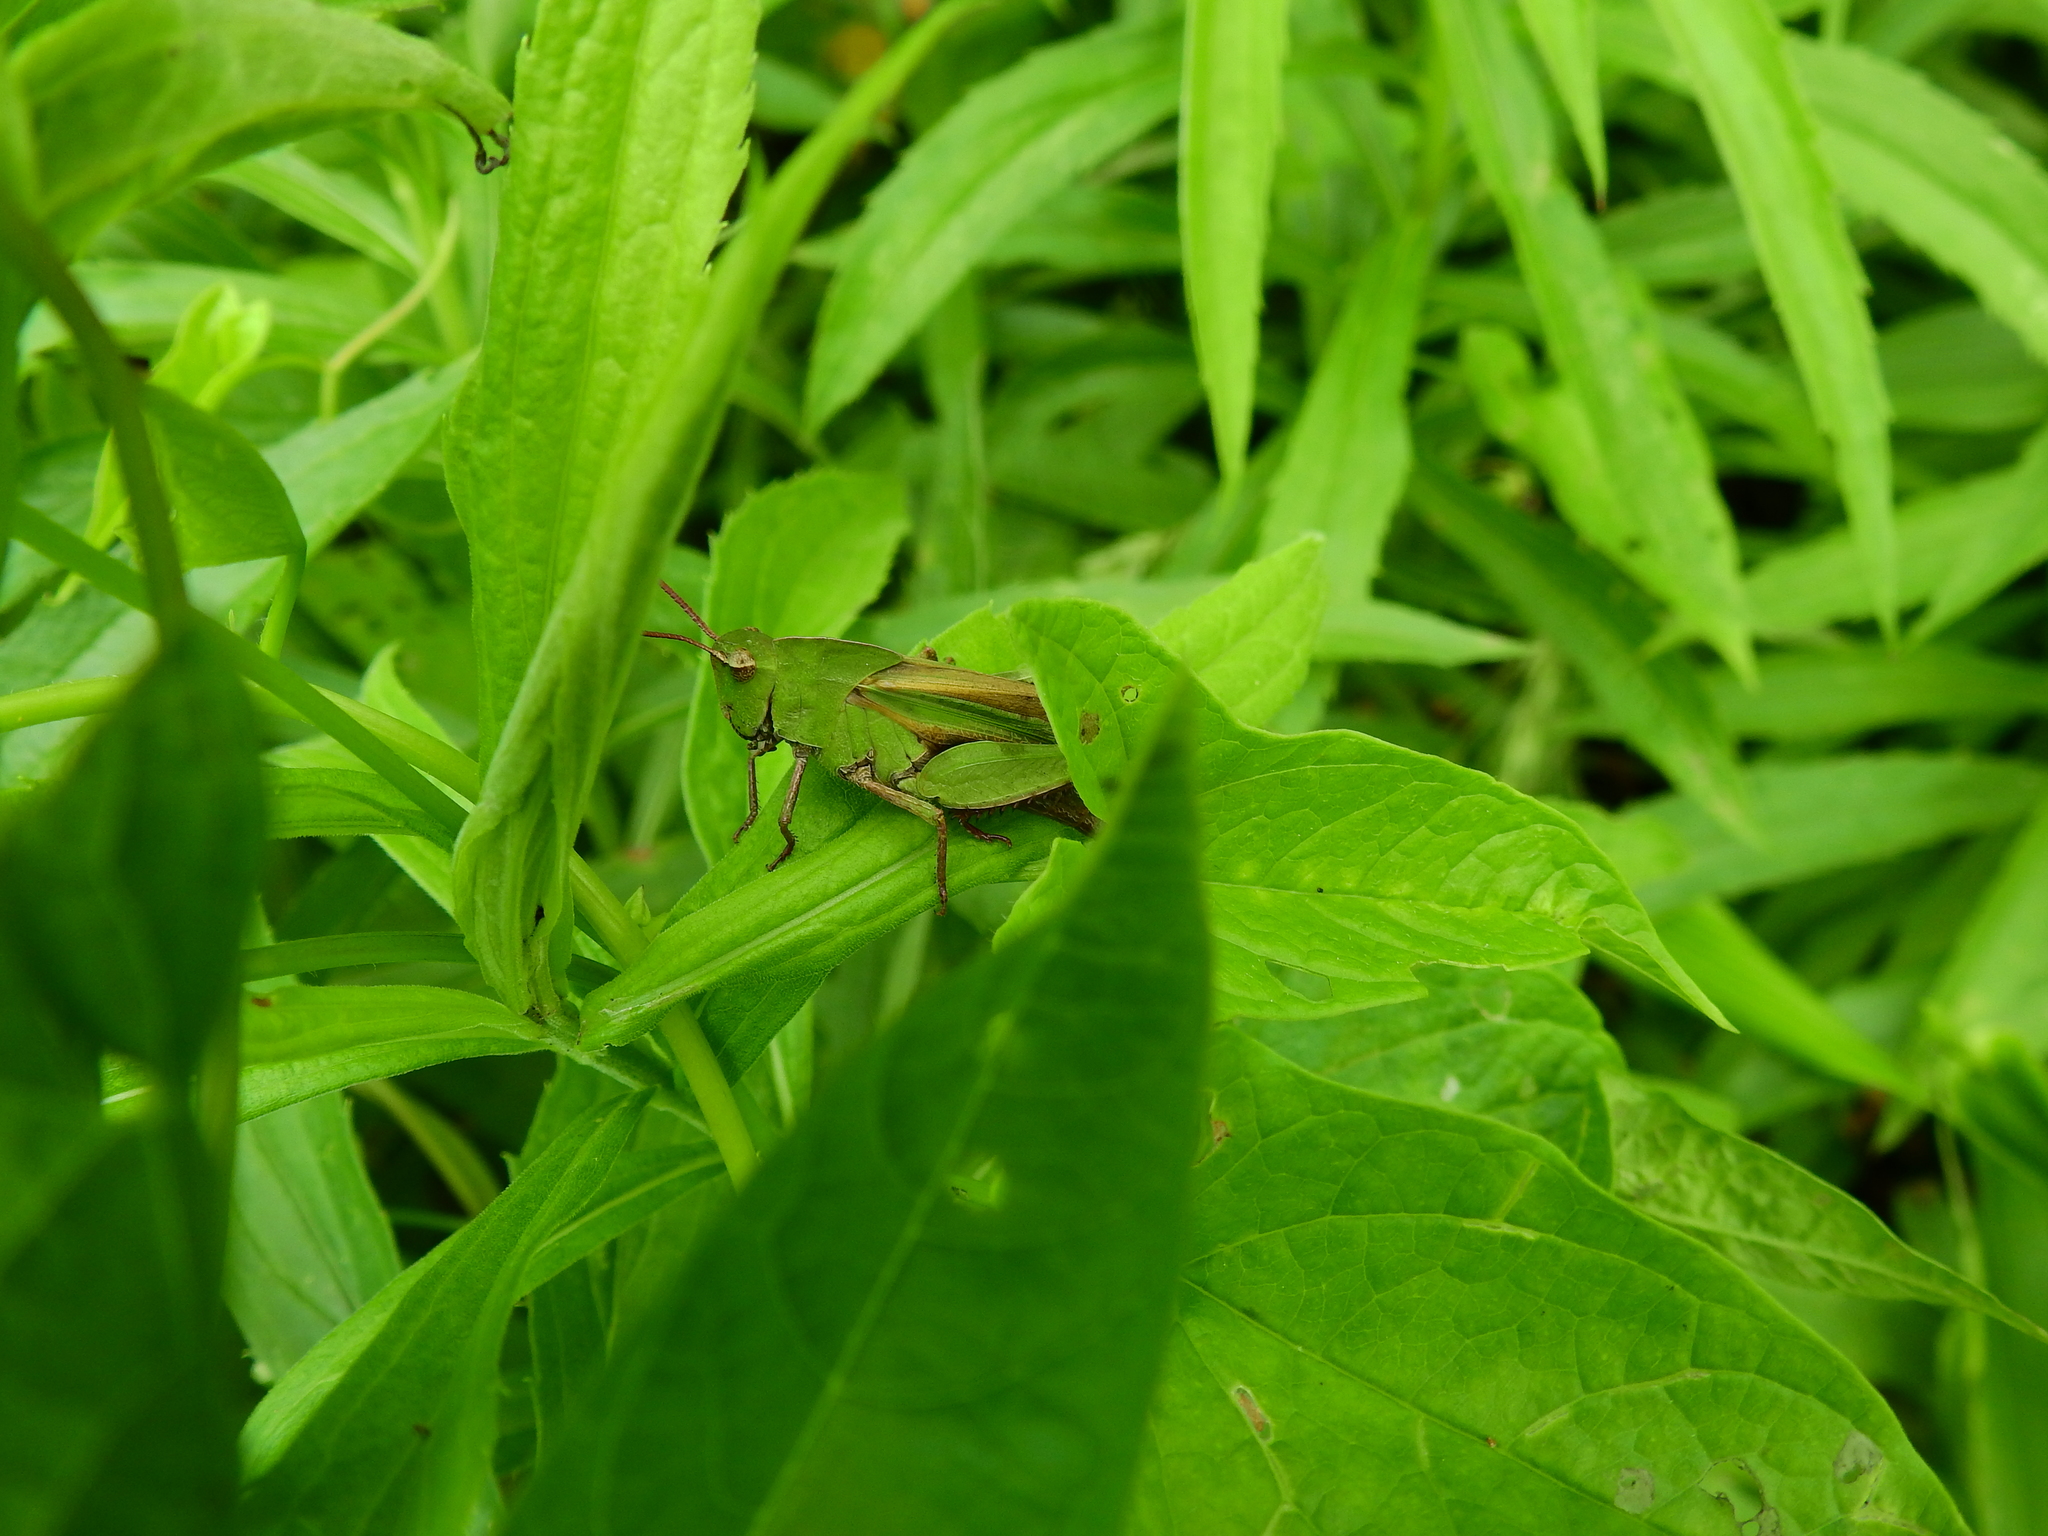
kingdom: Animalia
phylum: Arthropoda
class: Insecta
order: Orthoptera
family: Acrididae
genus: Chortophaga
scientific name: Chortophaga viridifasciata
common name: Green-striped grasshopper
